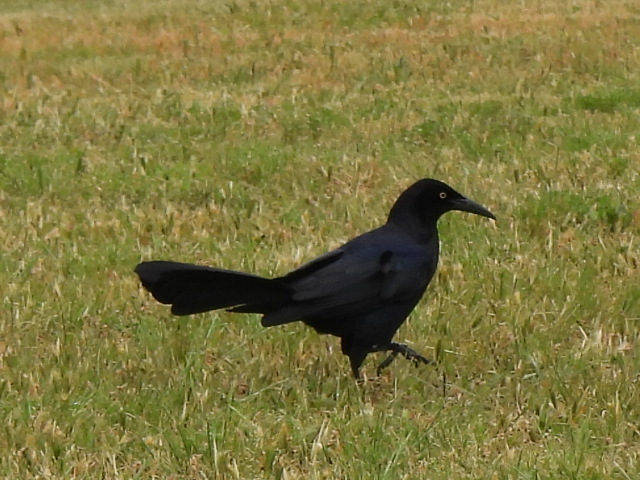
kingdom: Animalia
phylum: Chordata
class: Aves
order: Passeriformes
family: Icteridae
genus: Quiscalus
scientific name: Quiscalus mexicanus
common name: Great-tailed grackle
